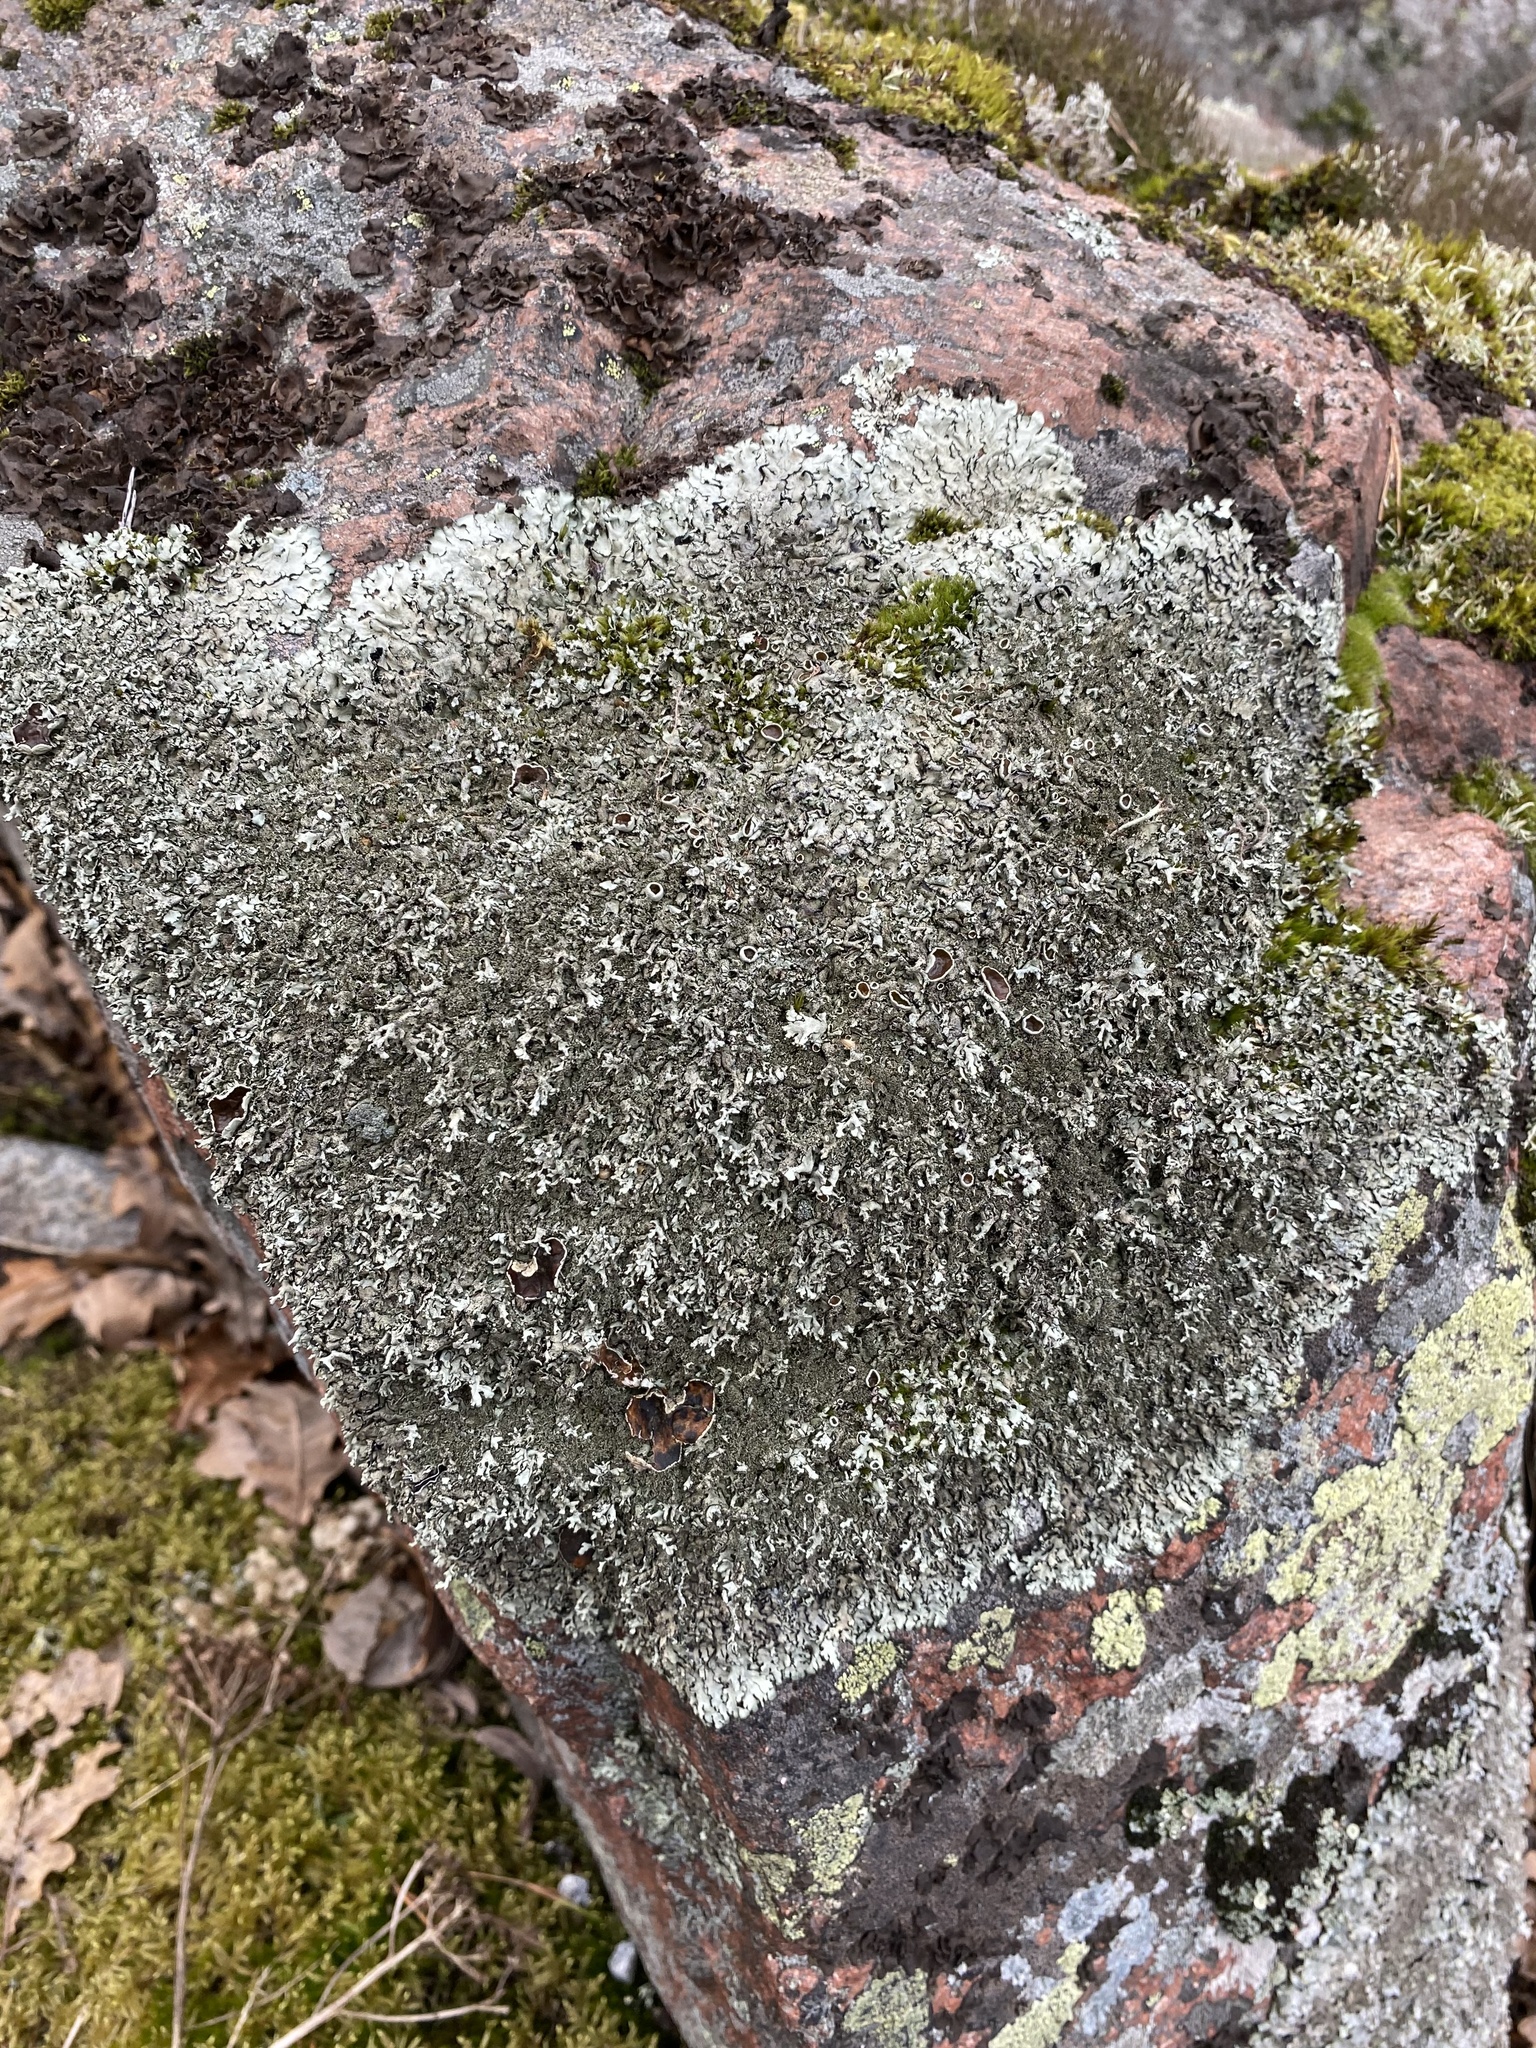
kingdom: Fungi
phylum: Ascomycota
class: Lecanoromycetes
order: Lecanorales
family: Parmeliaceae
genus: Xanthoparmelia
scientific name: Xanthoparmelia conspersa
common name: Peppered rock shield
